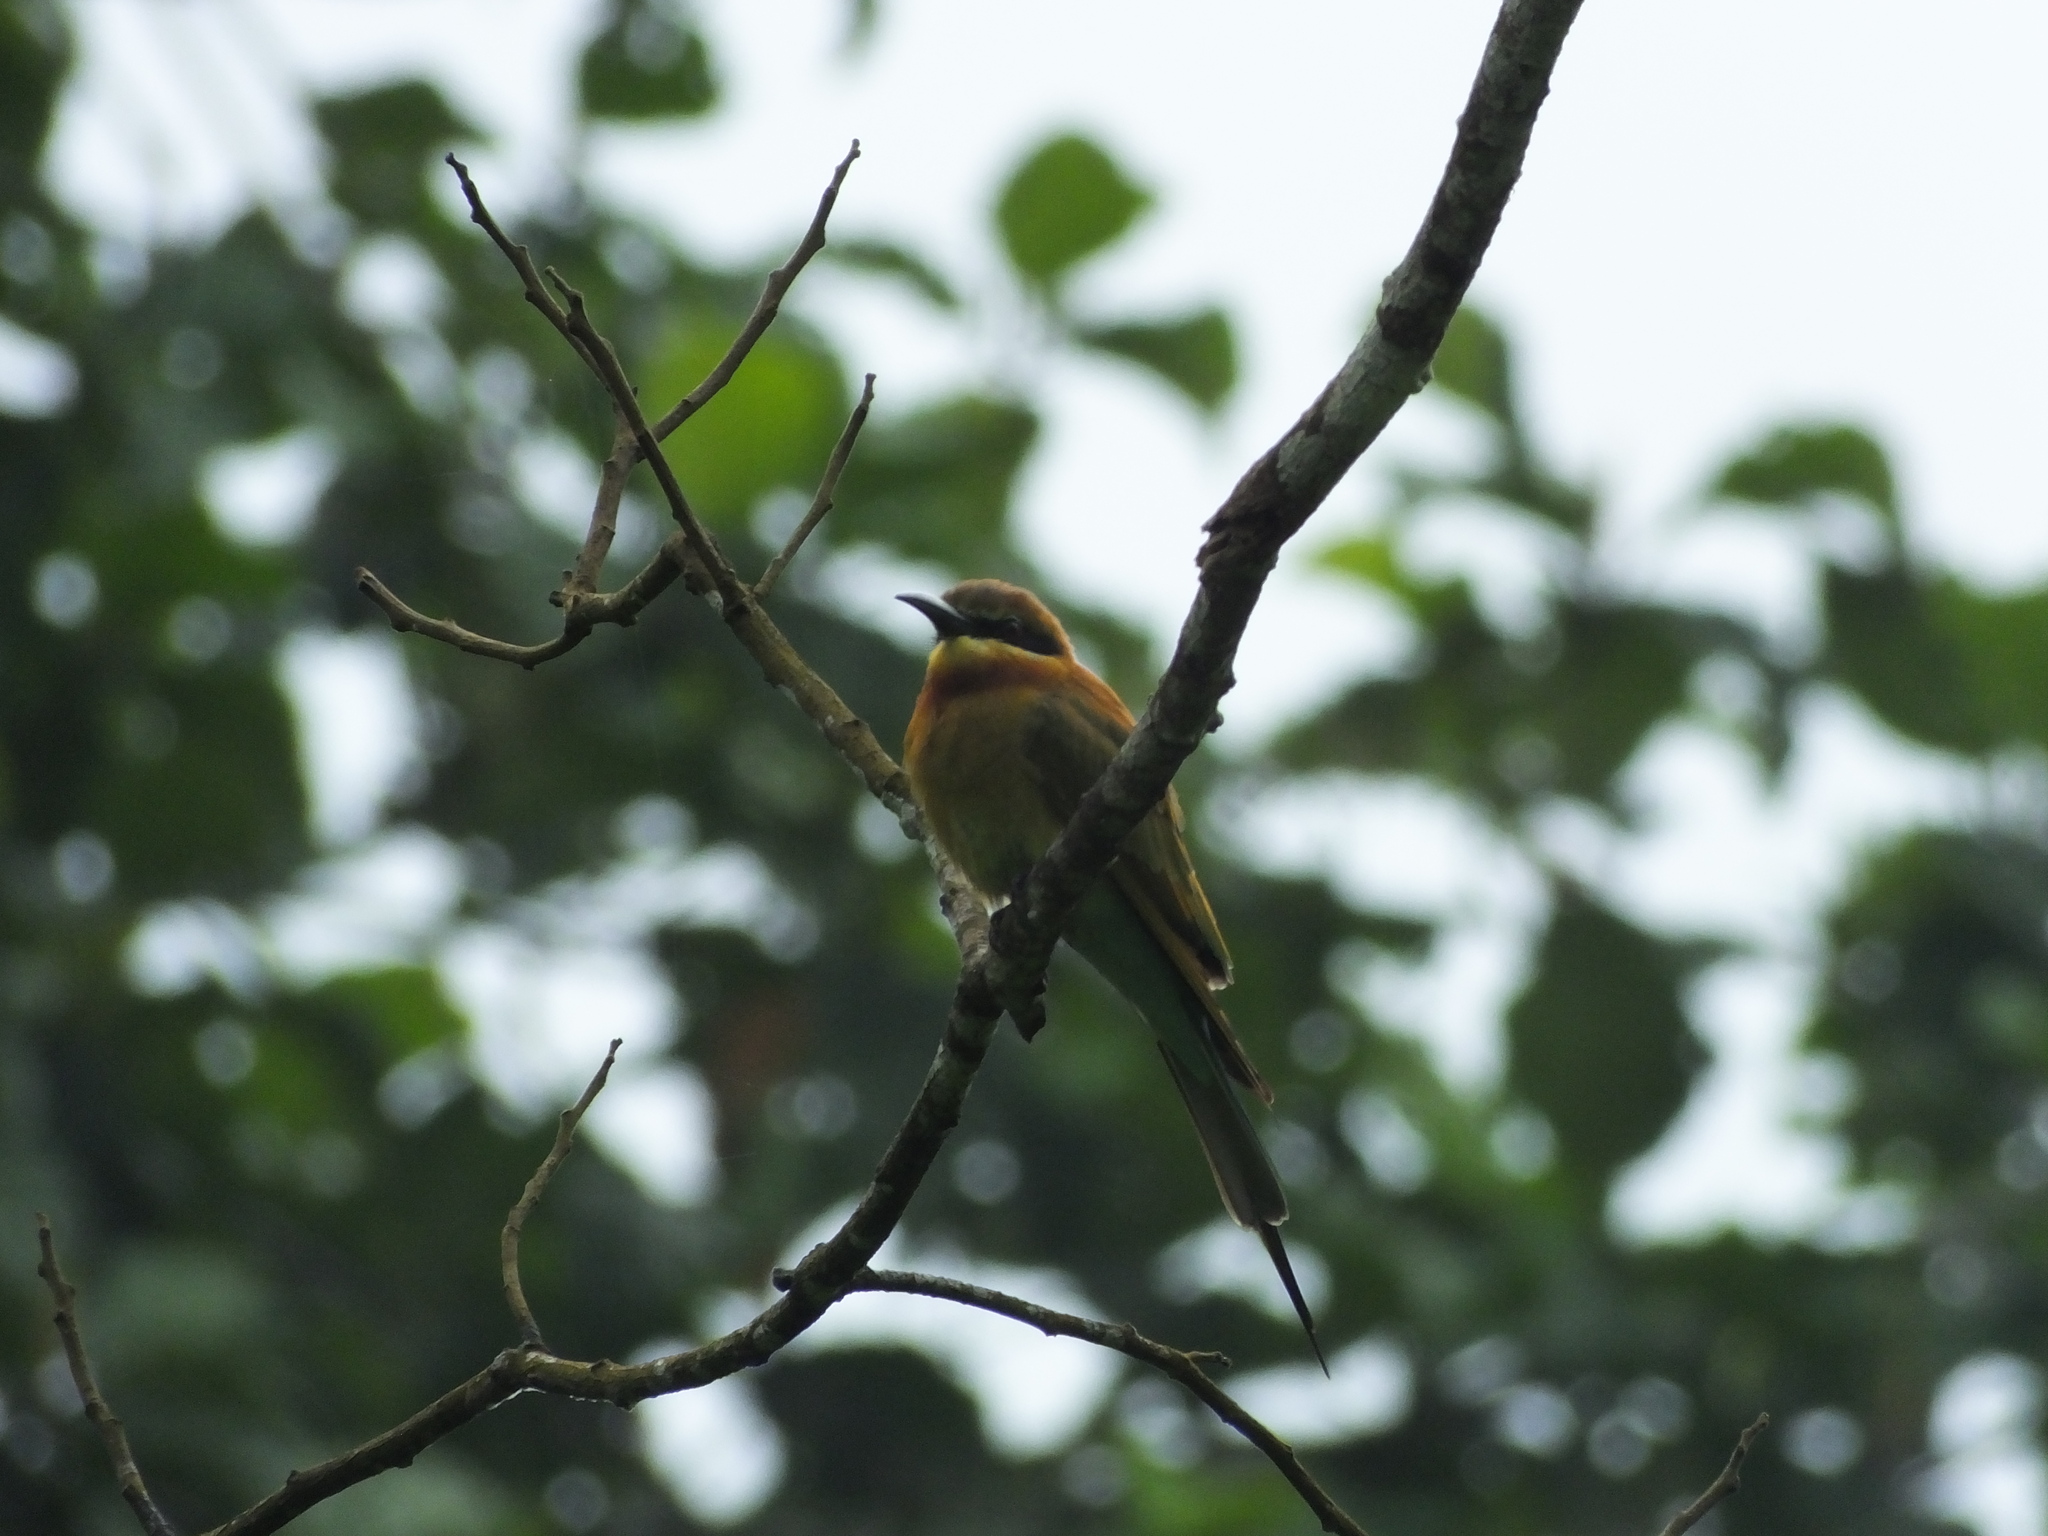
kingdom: Animalia
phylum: Chordata
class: Aves
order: Coraciiformes
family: Meropidae
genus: Merops
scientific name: Merops philippinus
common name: Blue-tailed bee-eater
